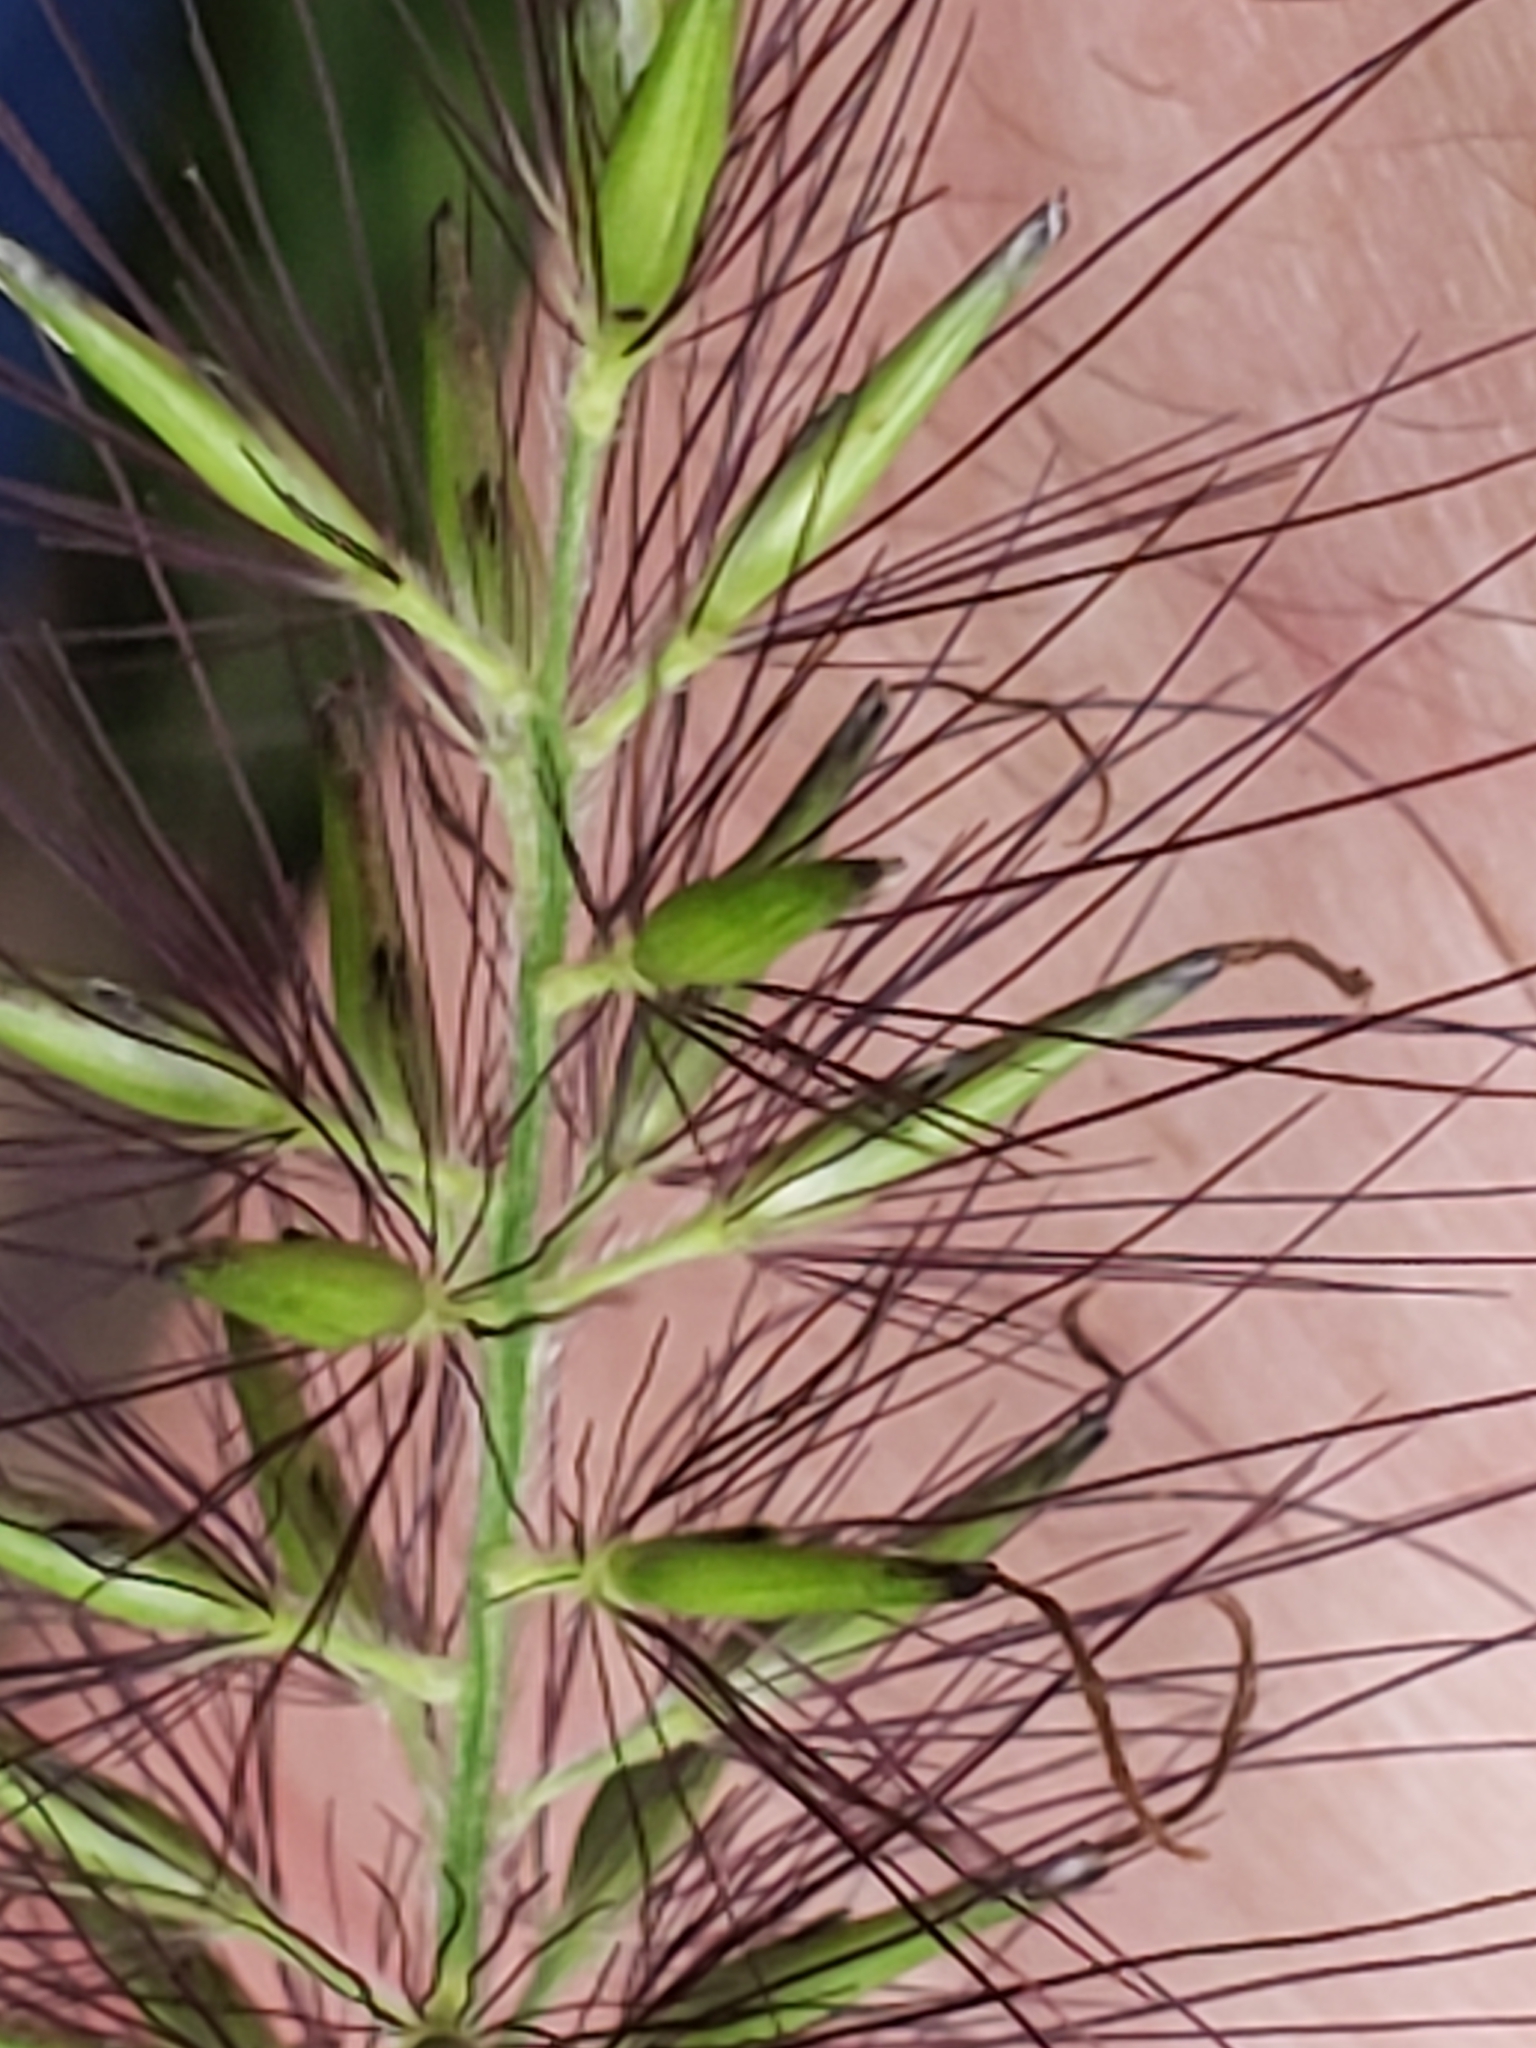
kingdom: Plantae
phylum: Tracheophyta
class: Liliopsida
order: Poales
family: Poaceae
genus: Cenchrus
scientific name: Cenchrus alopecuroides
